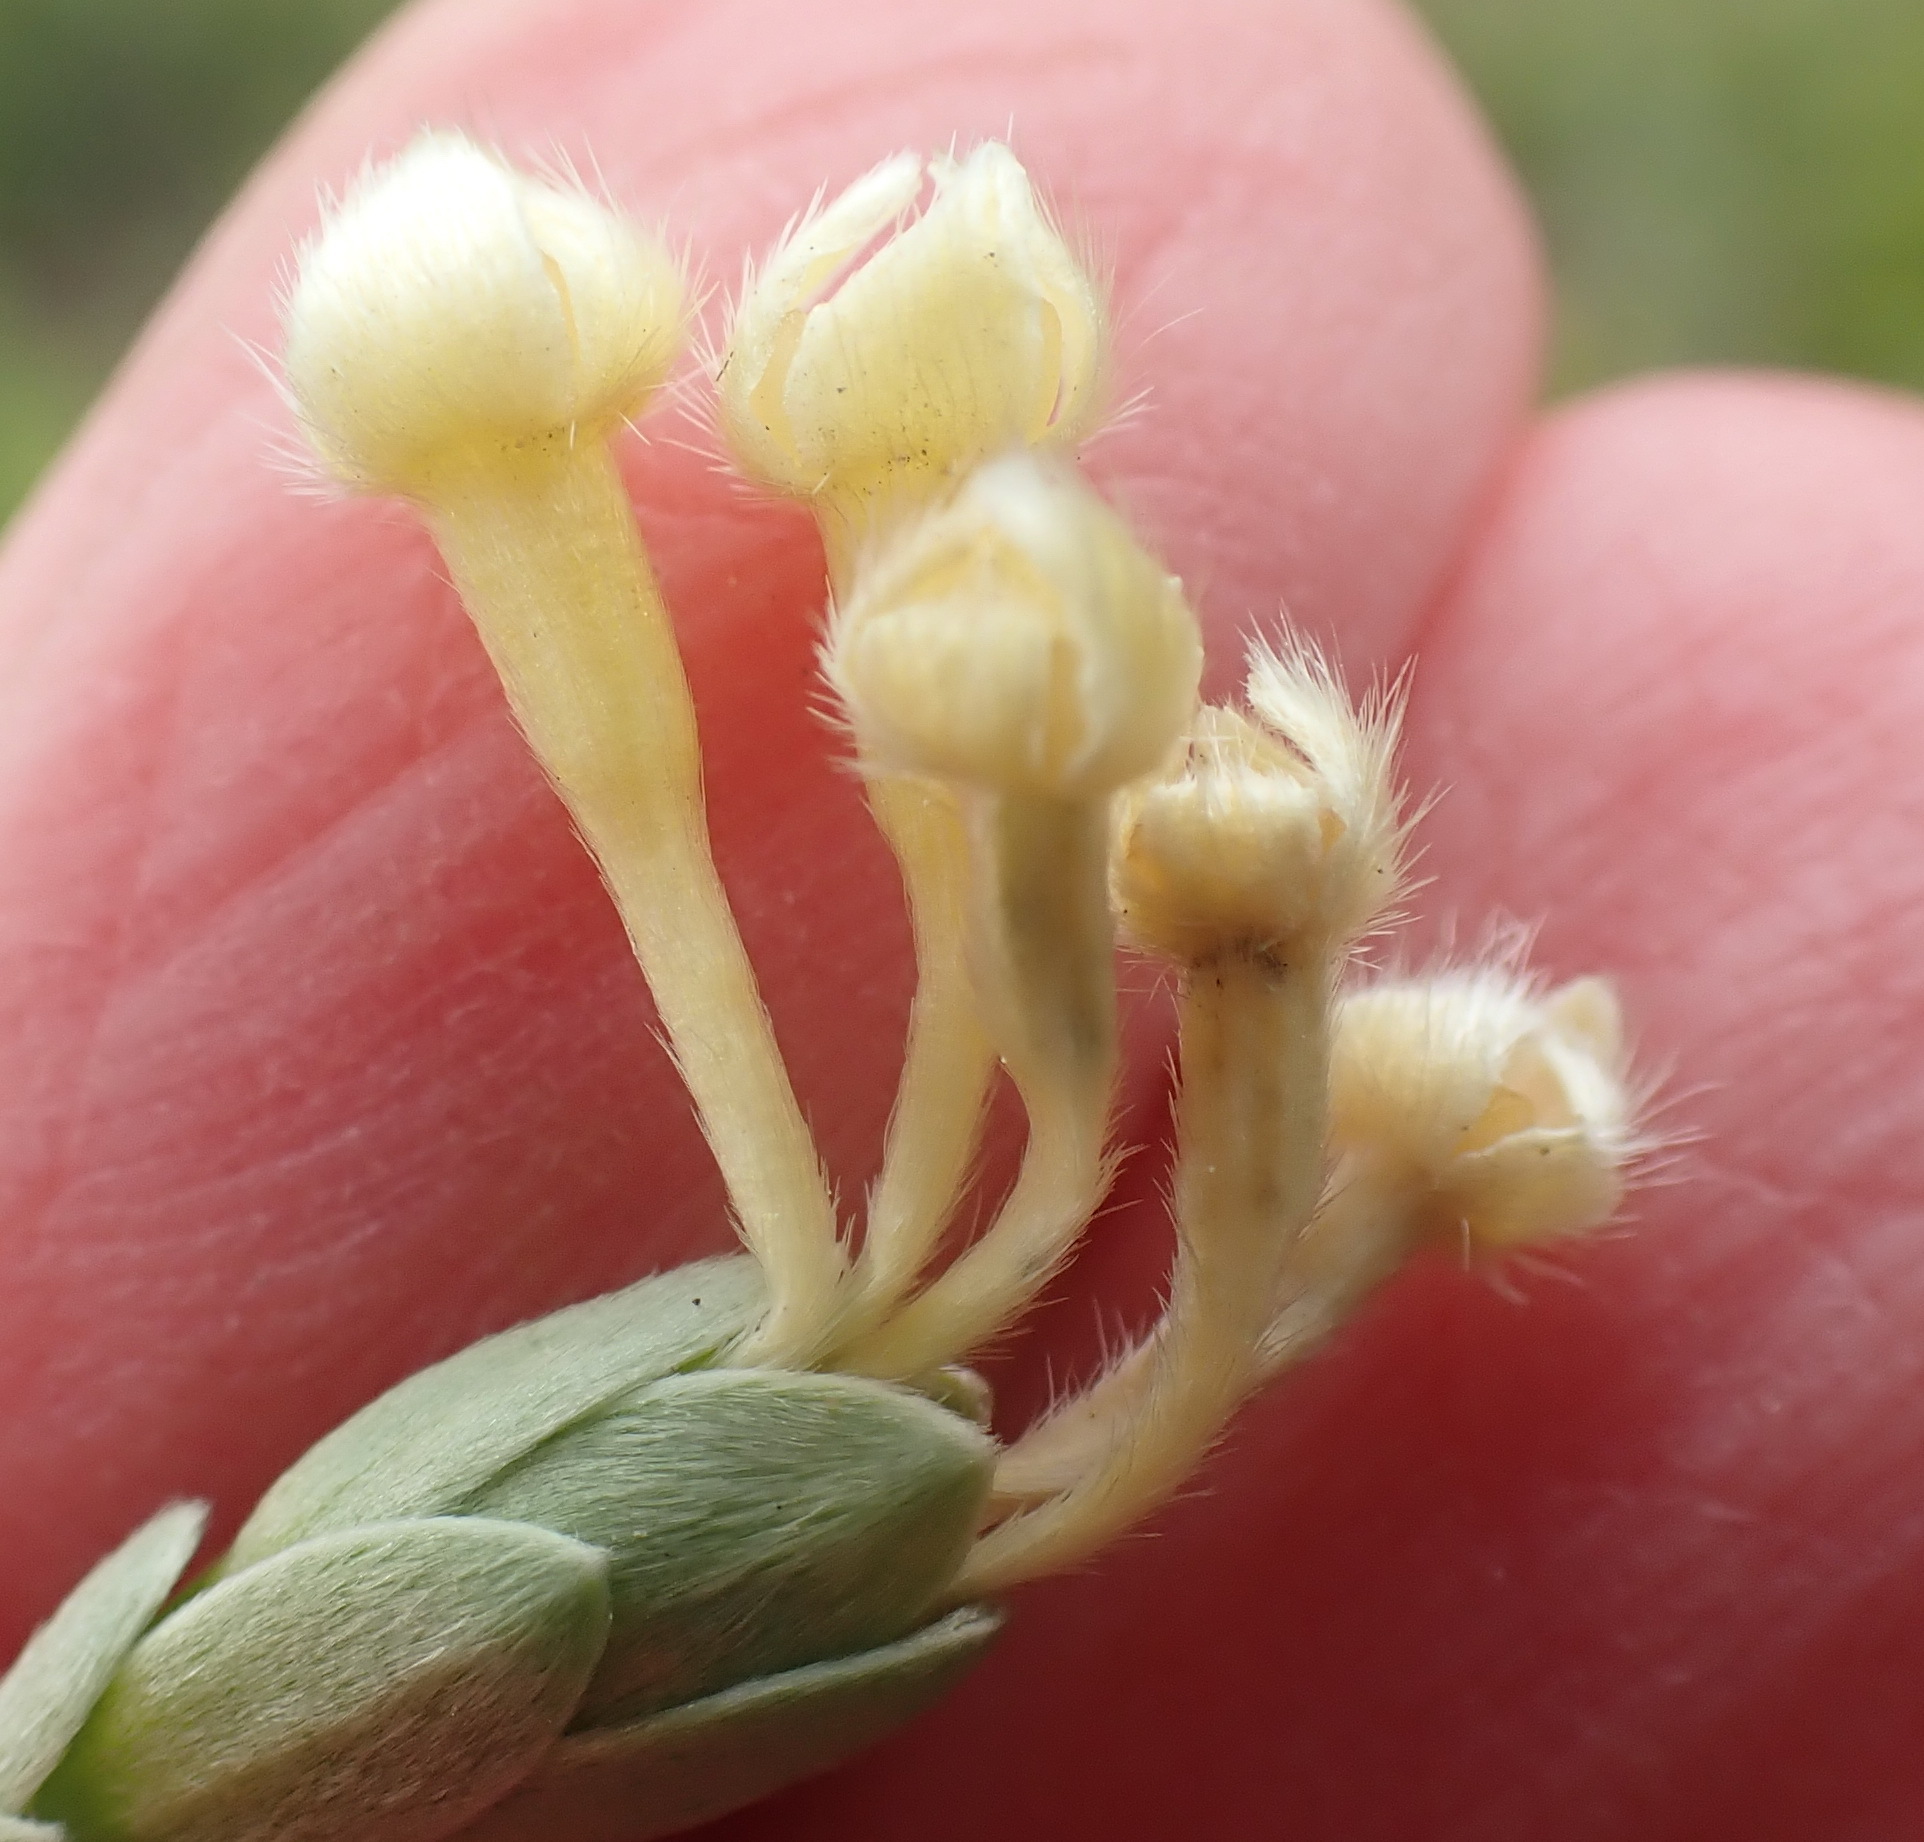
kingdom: Plantae
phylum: Tracheophyta
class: Magnoliopsida
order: Malvales
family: Thymelaeaceae
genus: Gnidia
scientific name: Gnidia chrysophylla
